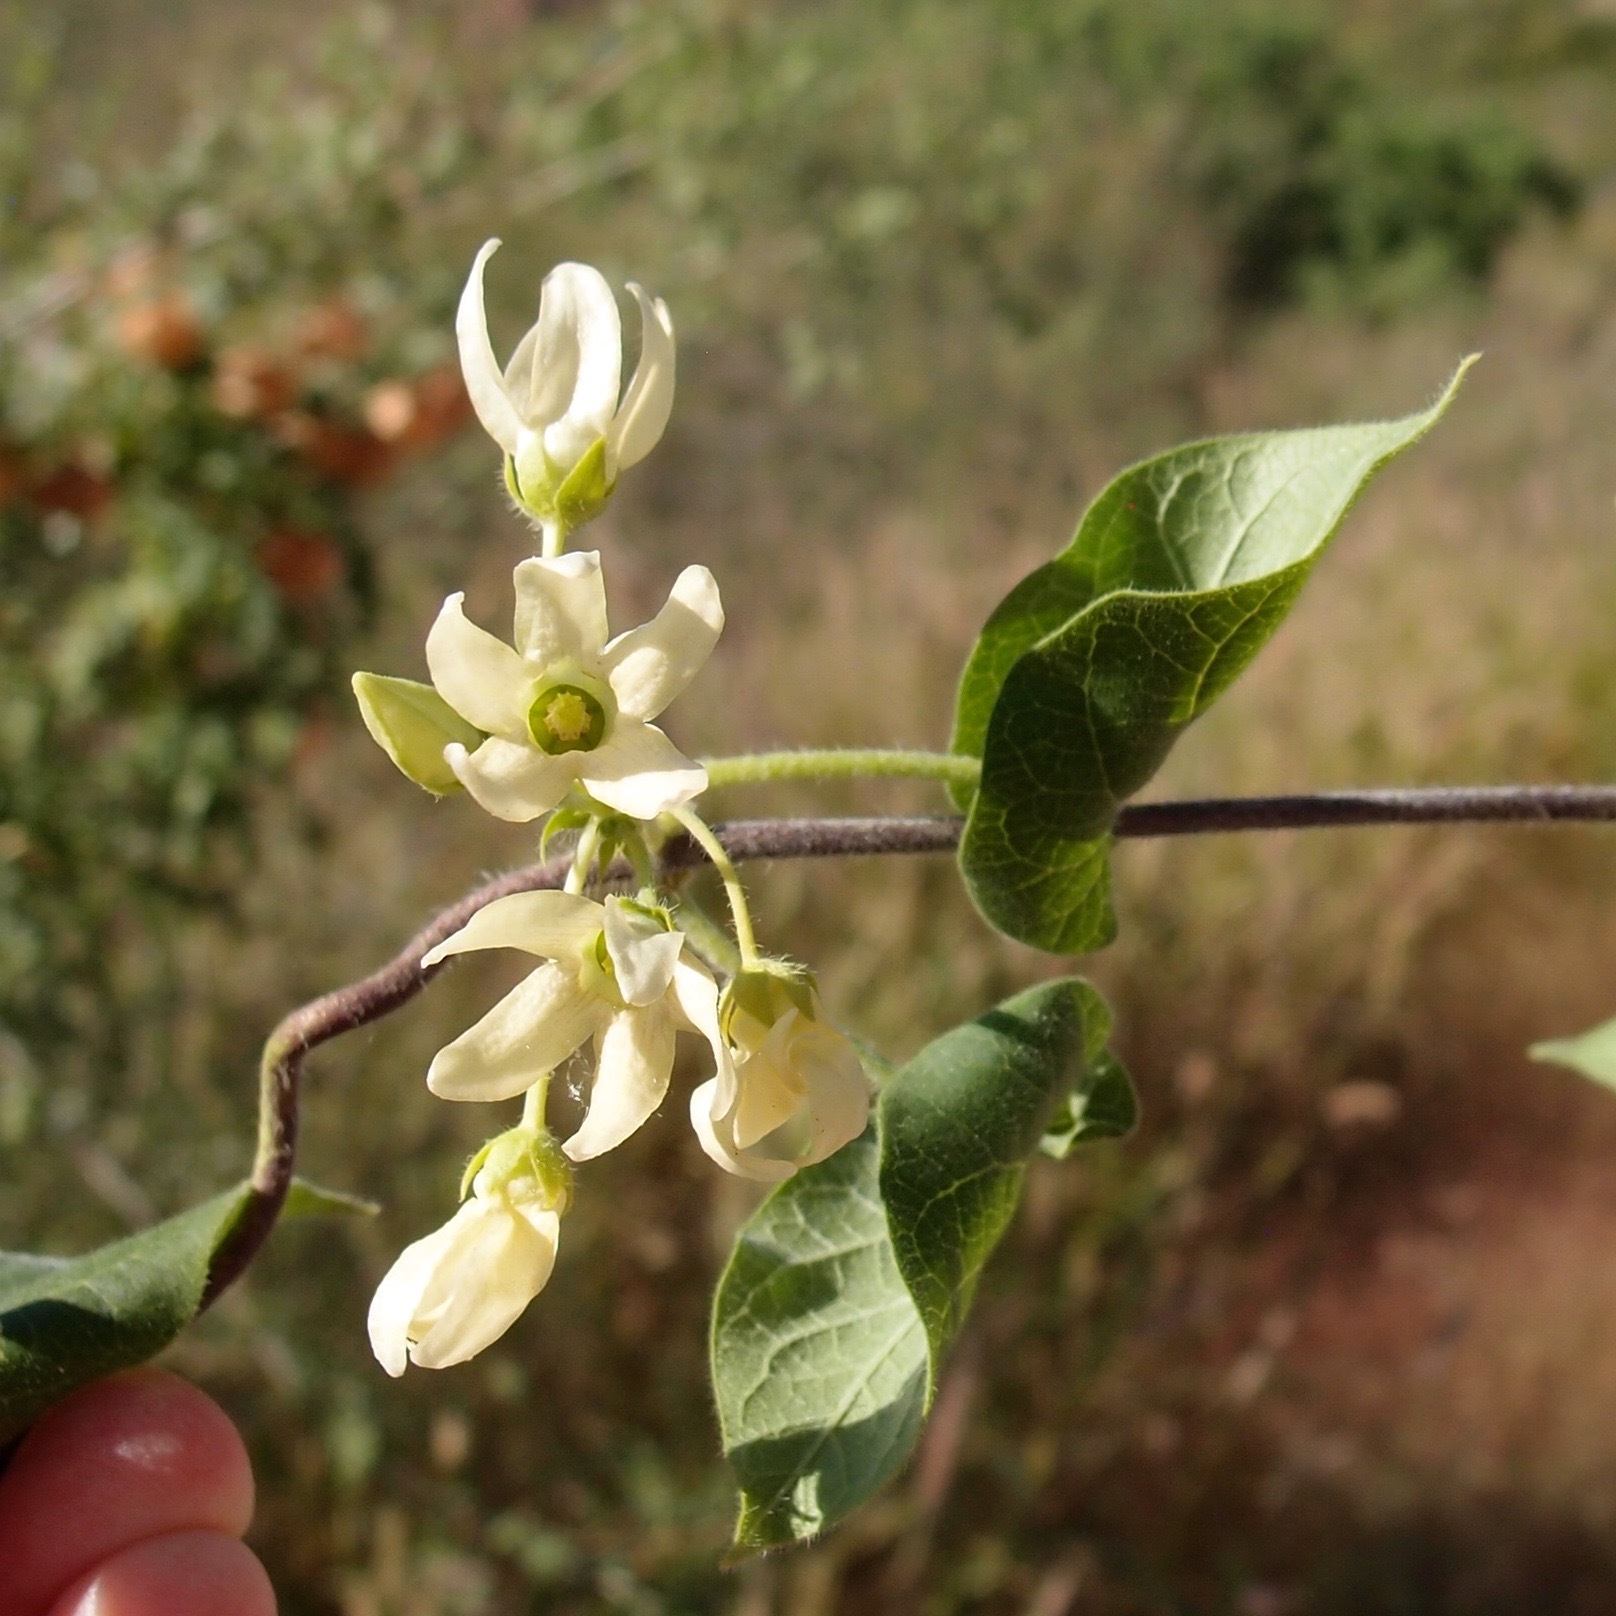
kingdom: Plantae
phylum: Tracheophyta
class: Magnoliopsida
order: Gentianales
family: Apocynaceae
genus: Polystemma
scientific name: Polystemma cordifolium
